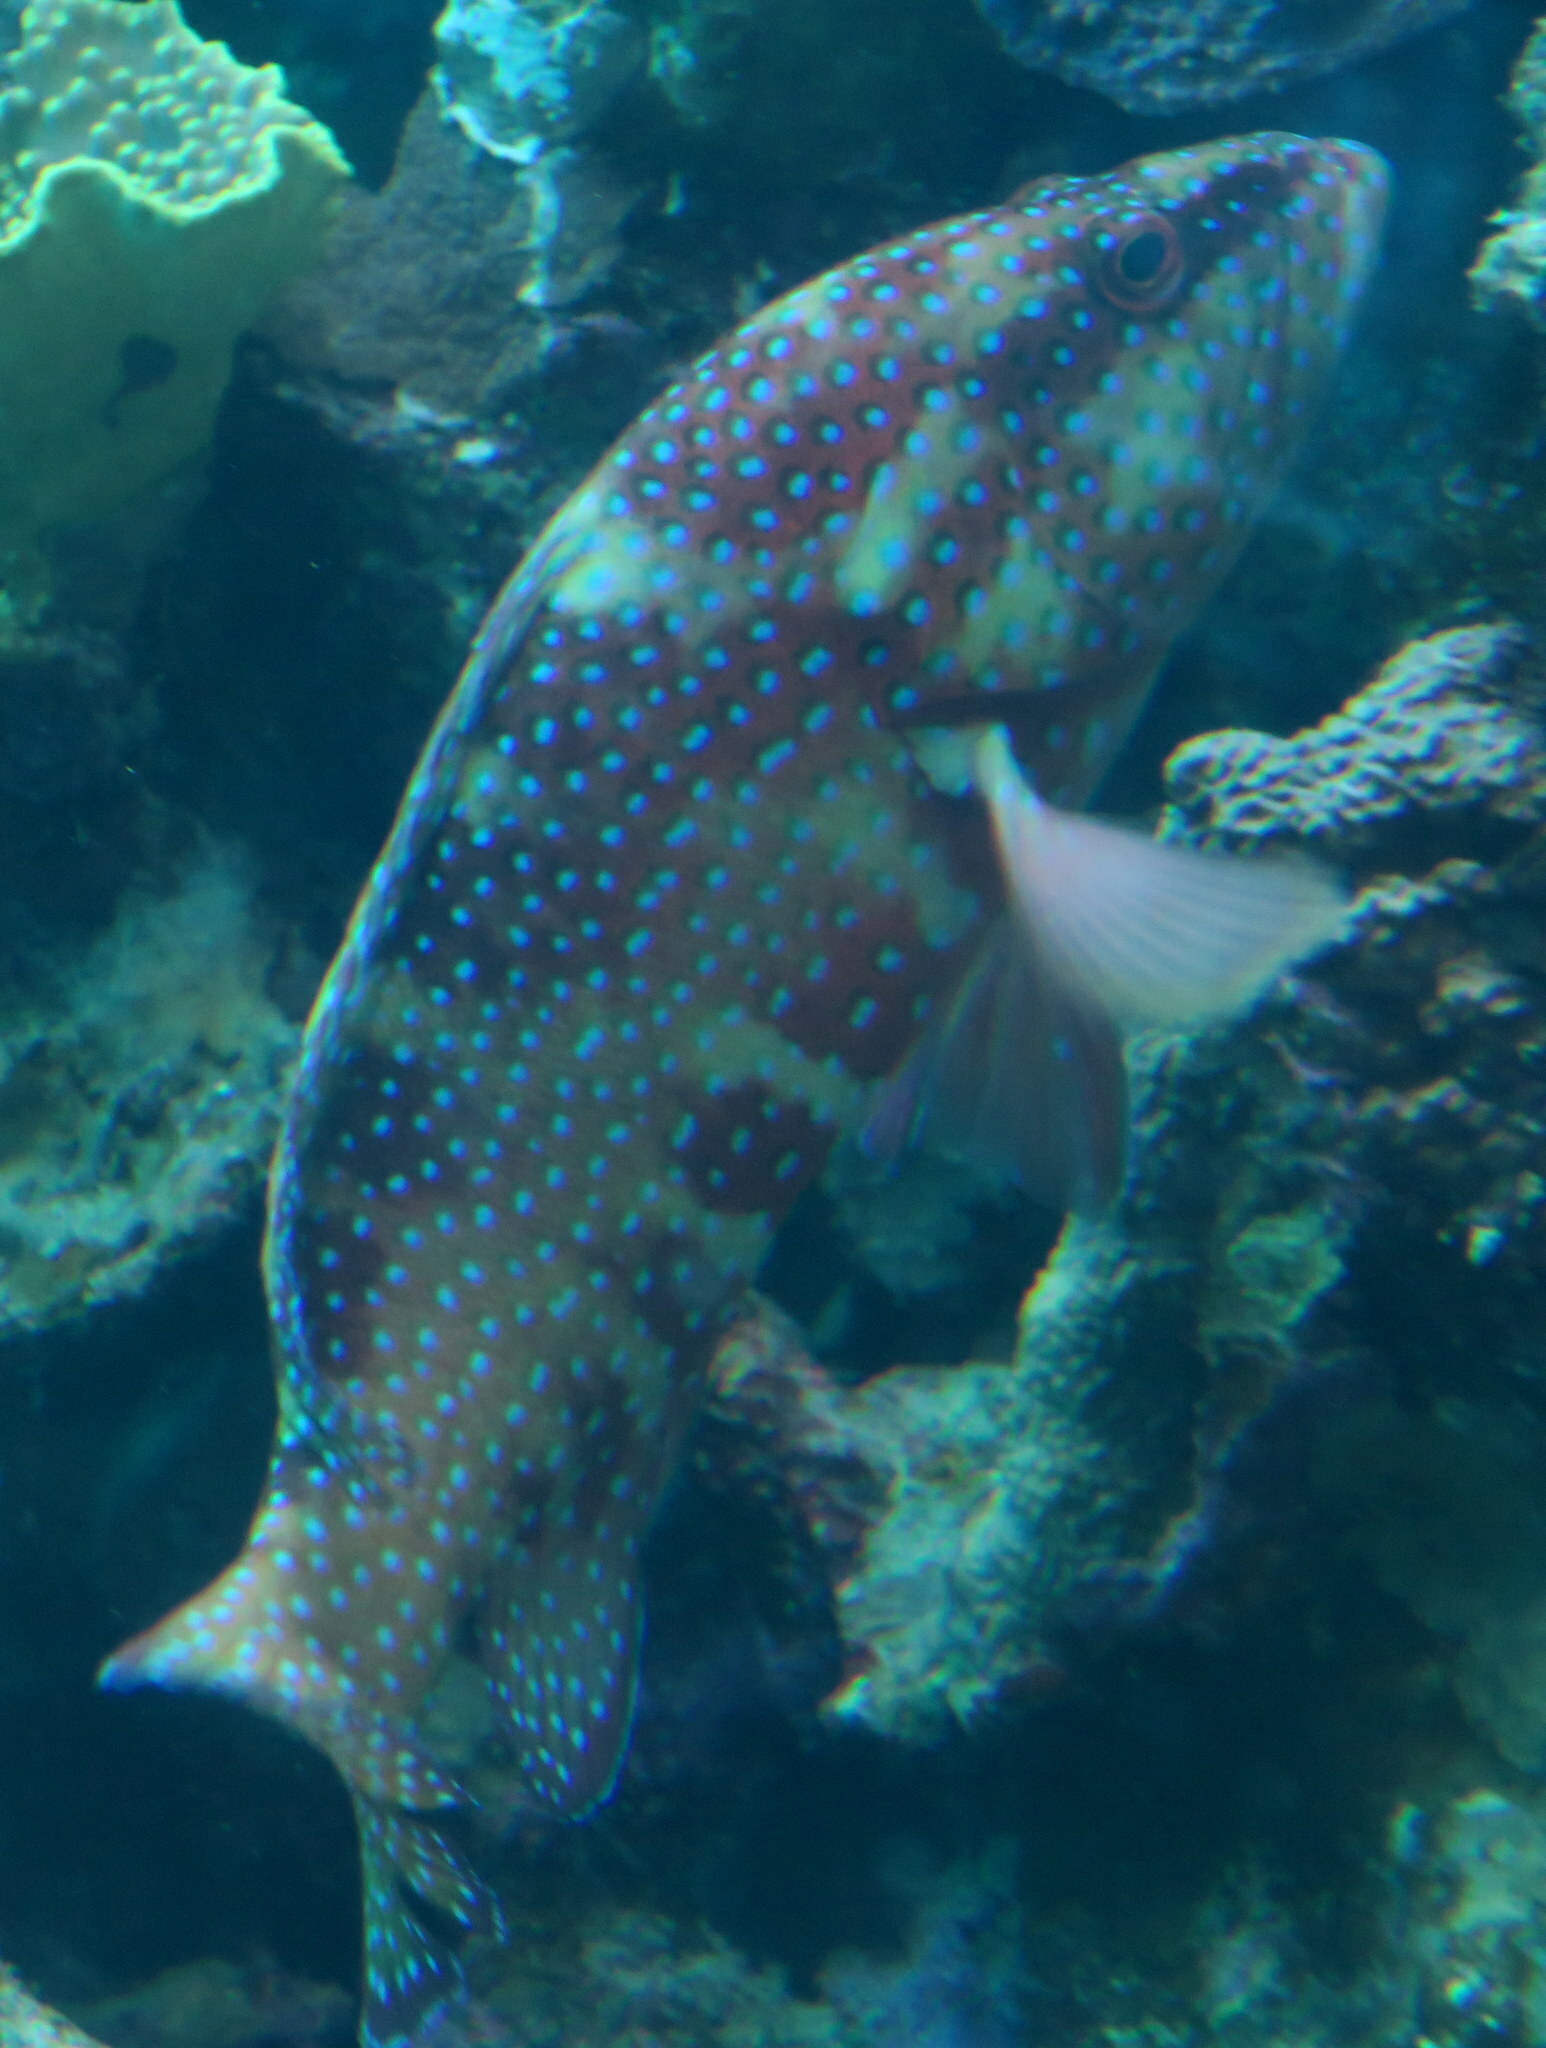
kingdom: Animalia
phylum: Chordata
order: Perciformes
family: Serranidae
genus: Cephalopholis
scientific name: Cephalopholis miniata
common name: Coral hind
